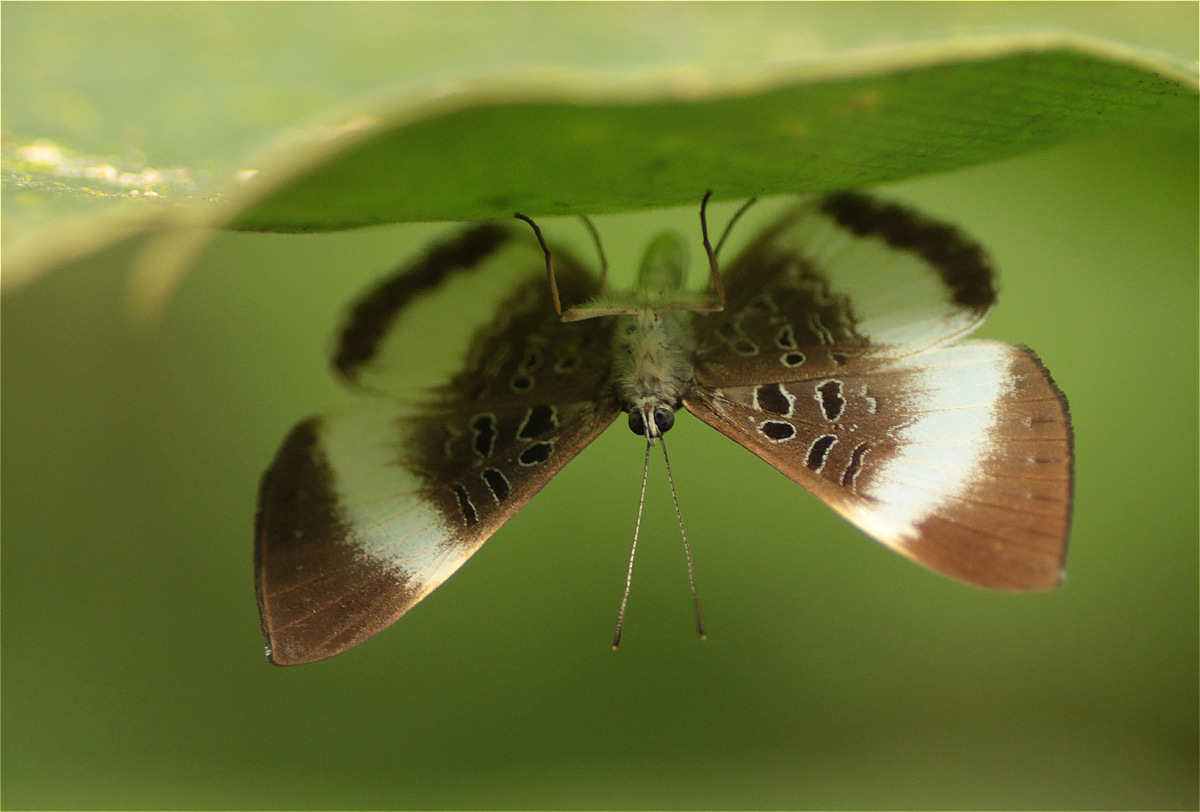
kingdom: Animalia
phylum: Arthropoda
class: Insecta
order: Lepidoptera
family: Riodinidae
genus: Livendula
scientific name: Livendula
